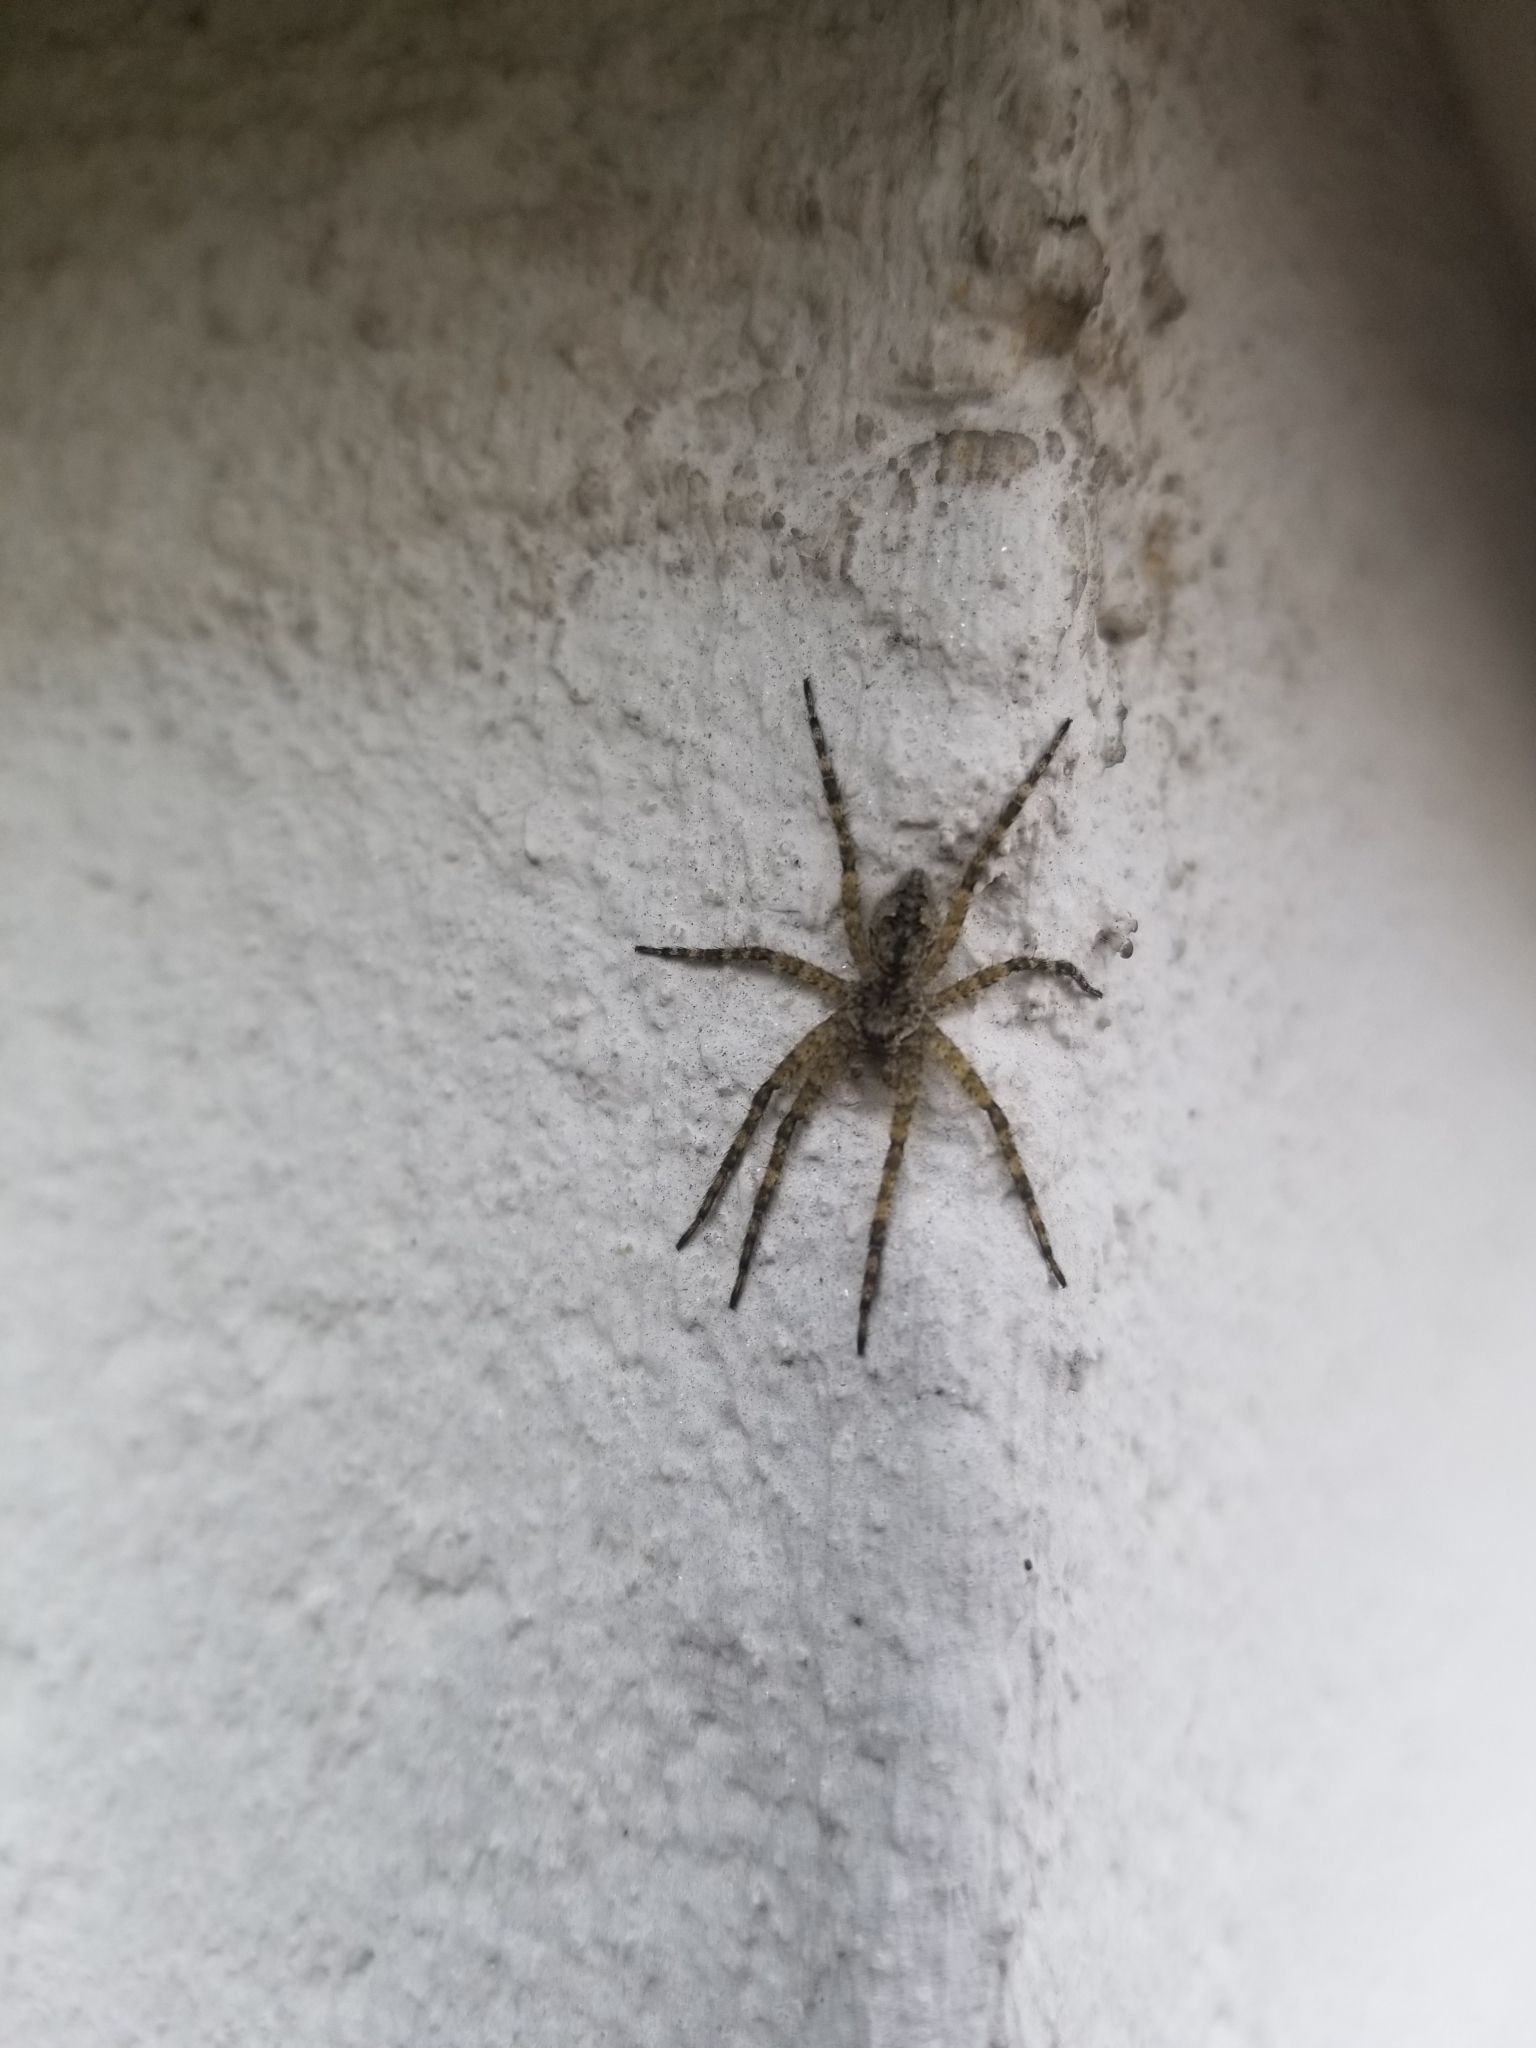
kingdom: Animalia
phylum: Arthropoda
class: Arachnida
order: Araneae
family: Pisauridae
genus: Dolomedes
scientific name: Dolomedes albineus
